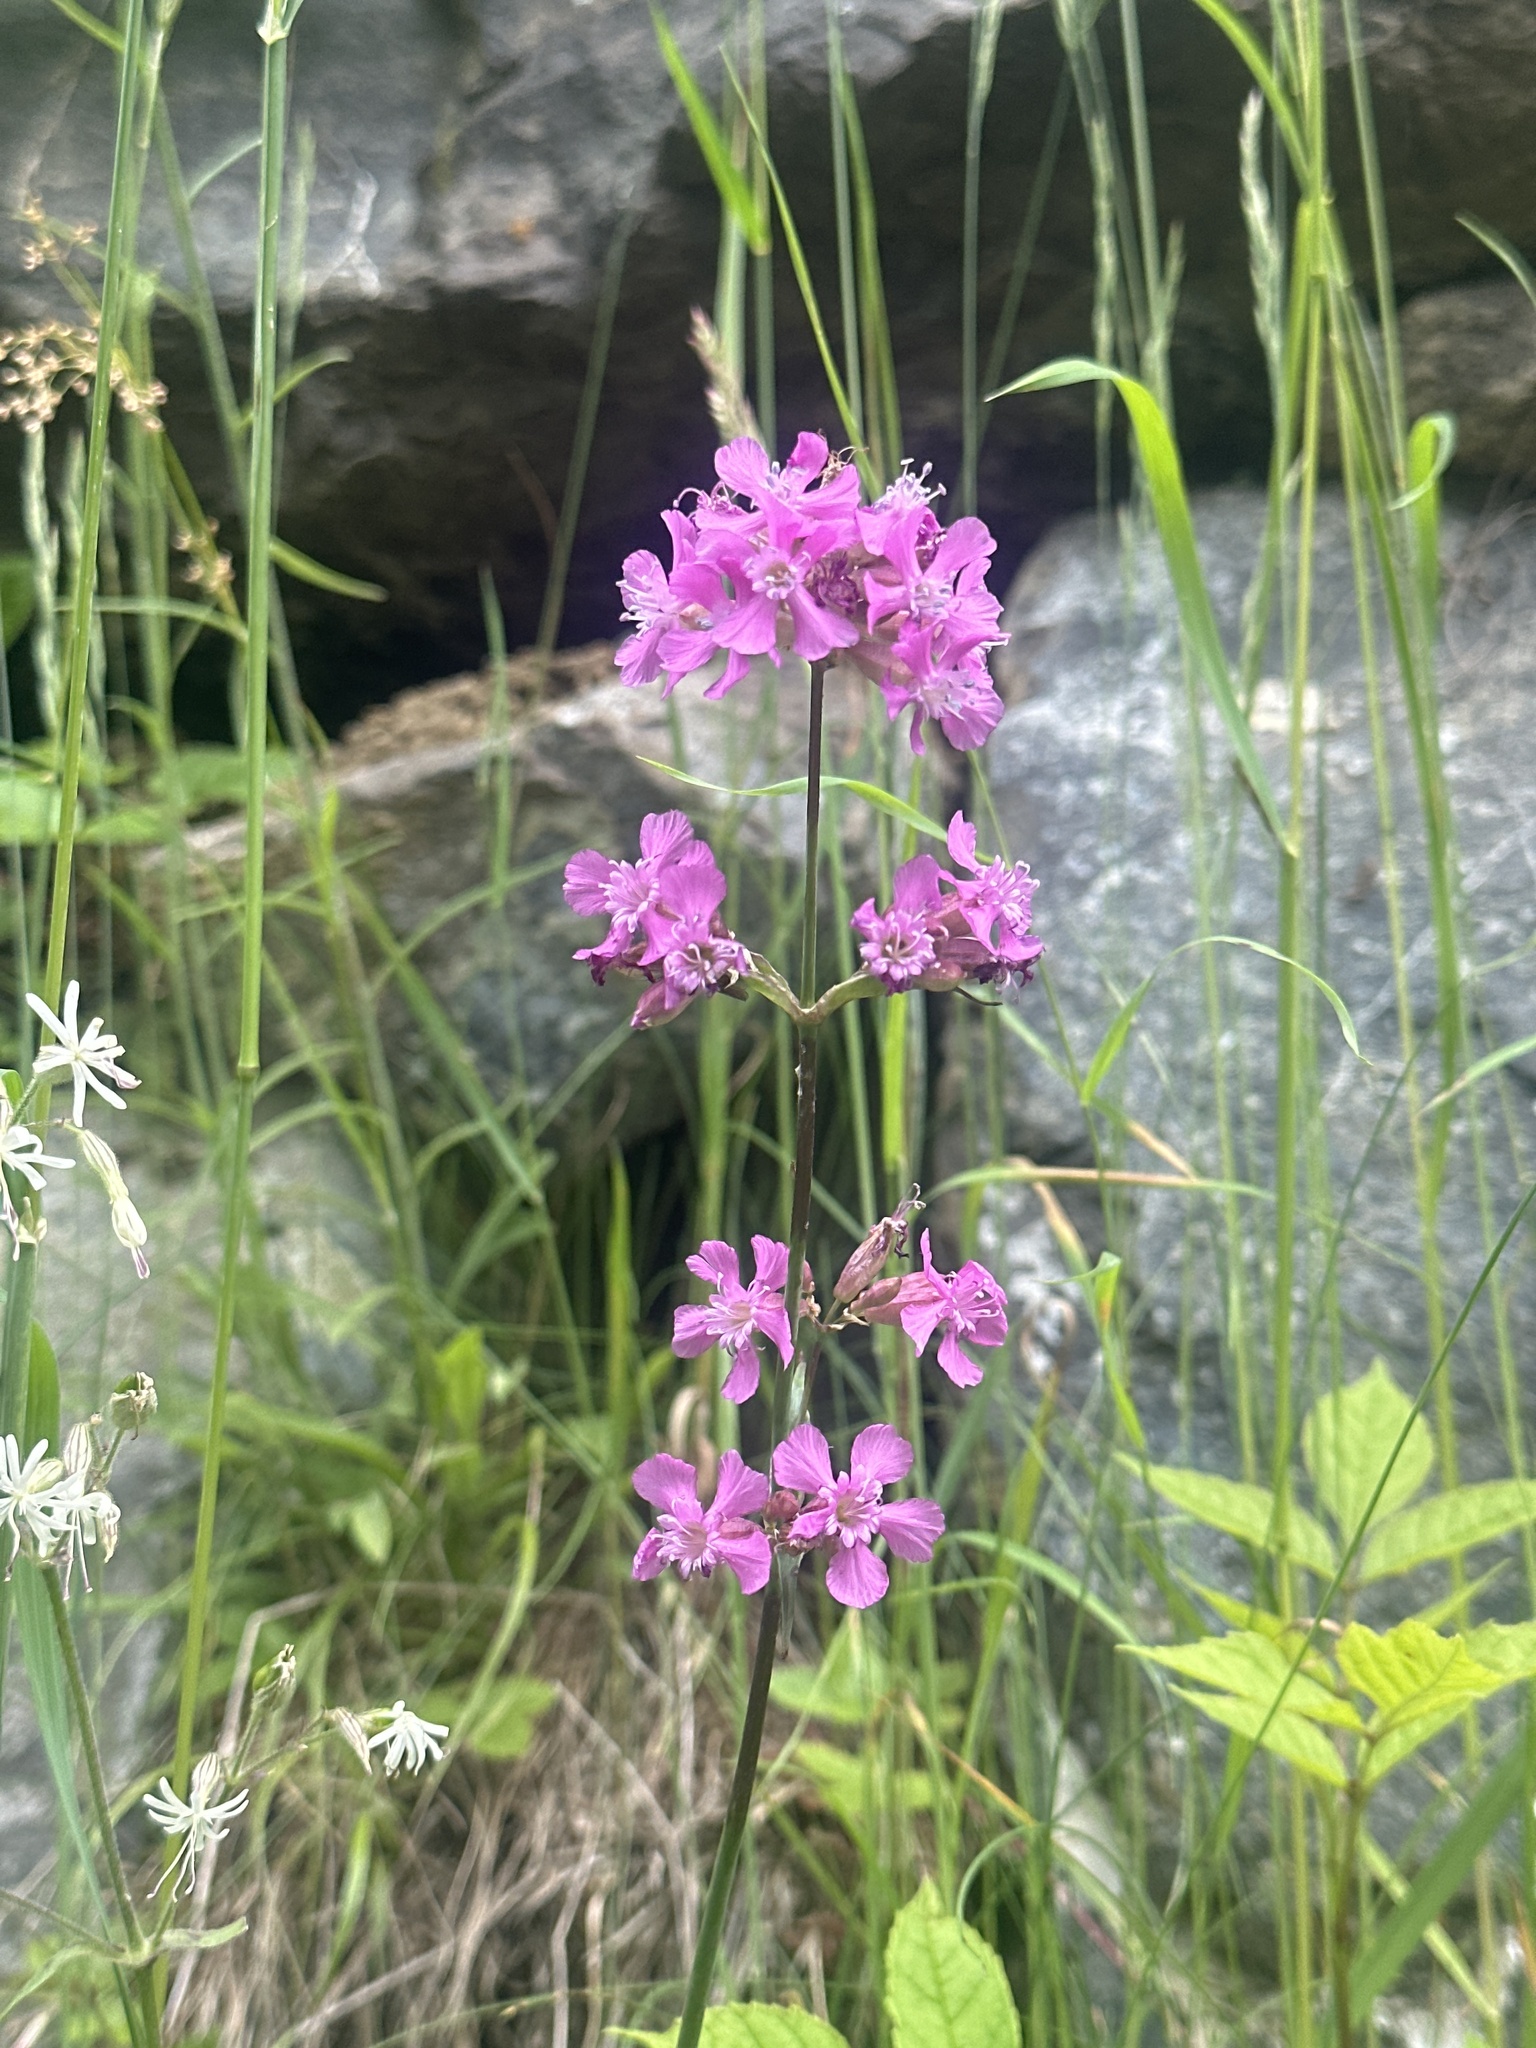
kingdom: Plantae
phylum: Tracheophyta
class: Magnoliopsida
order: Caryophyllales
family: Caryophyllaceae
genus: Viscaria
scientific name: Viscaria vulgaris
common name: Clammy campion
